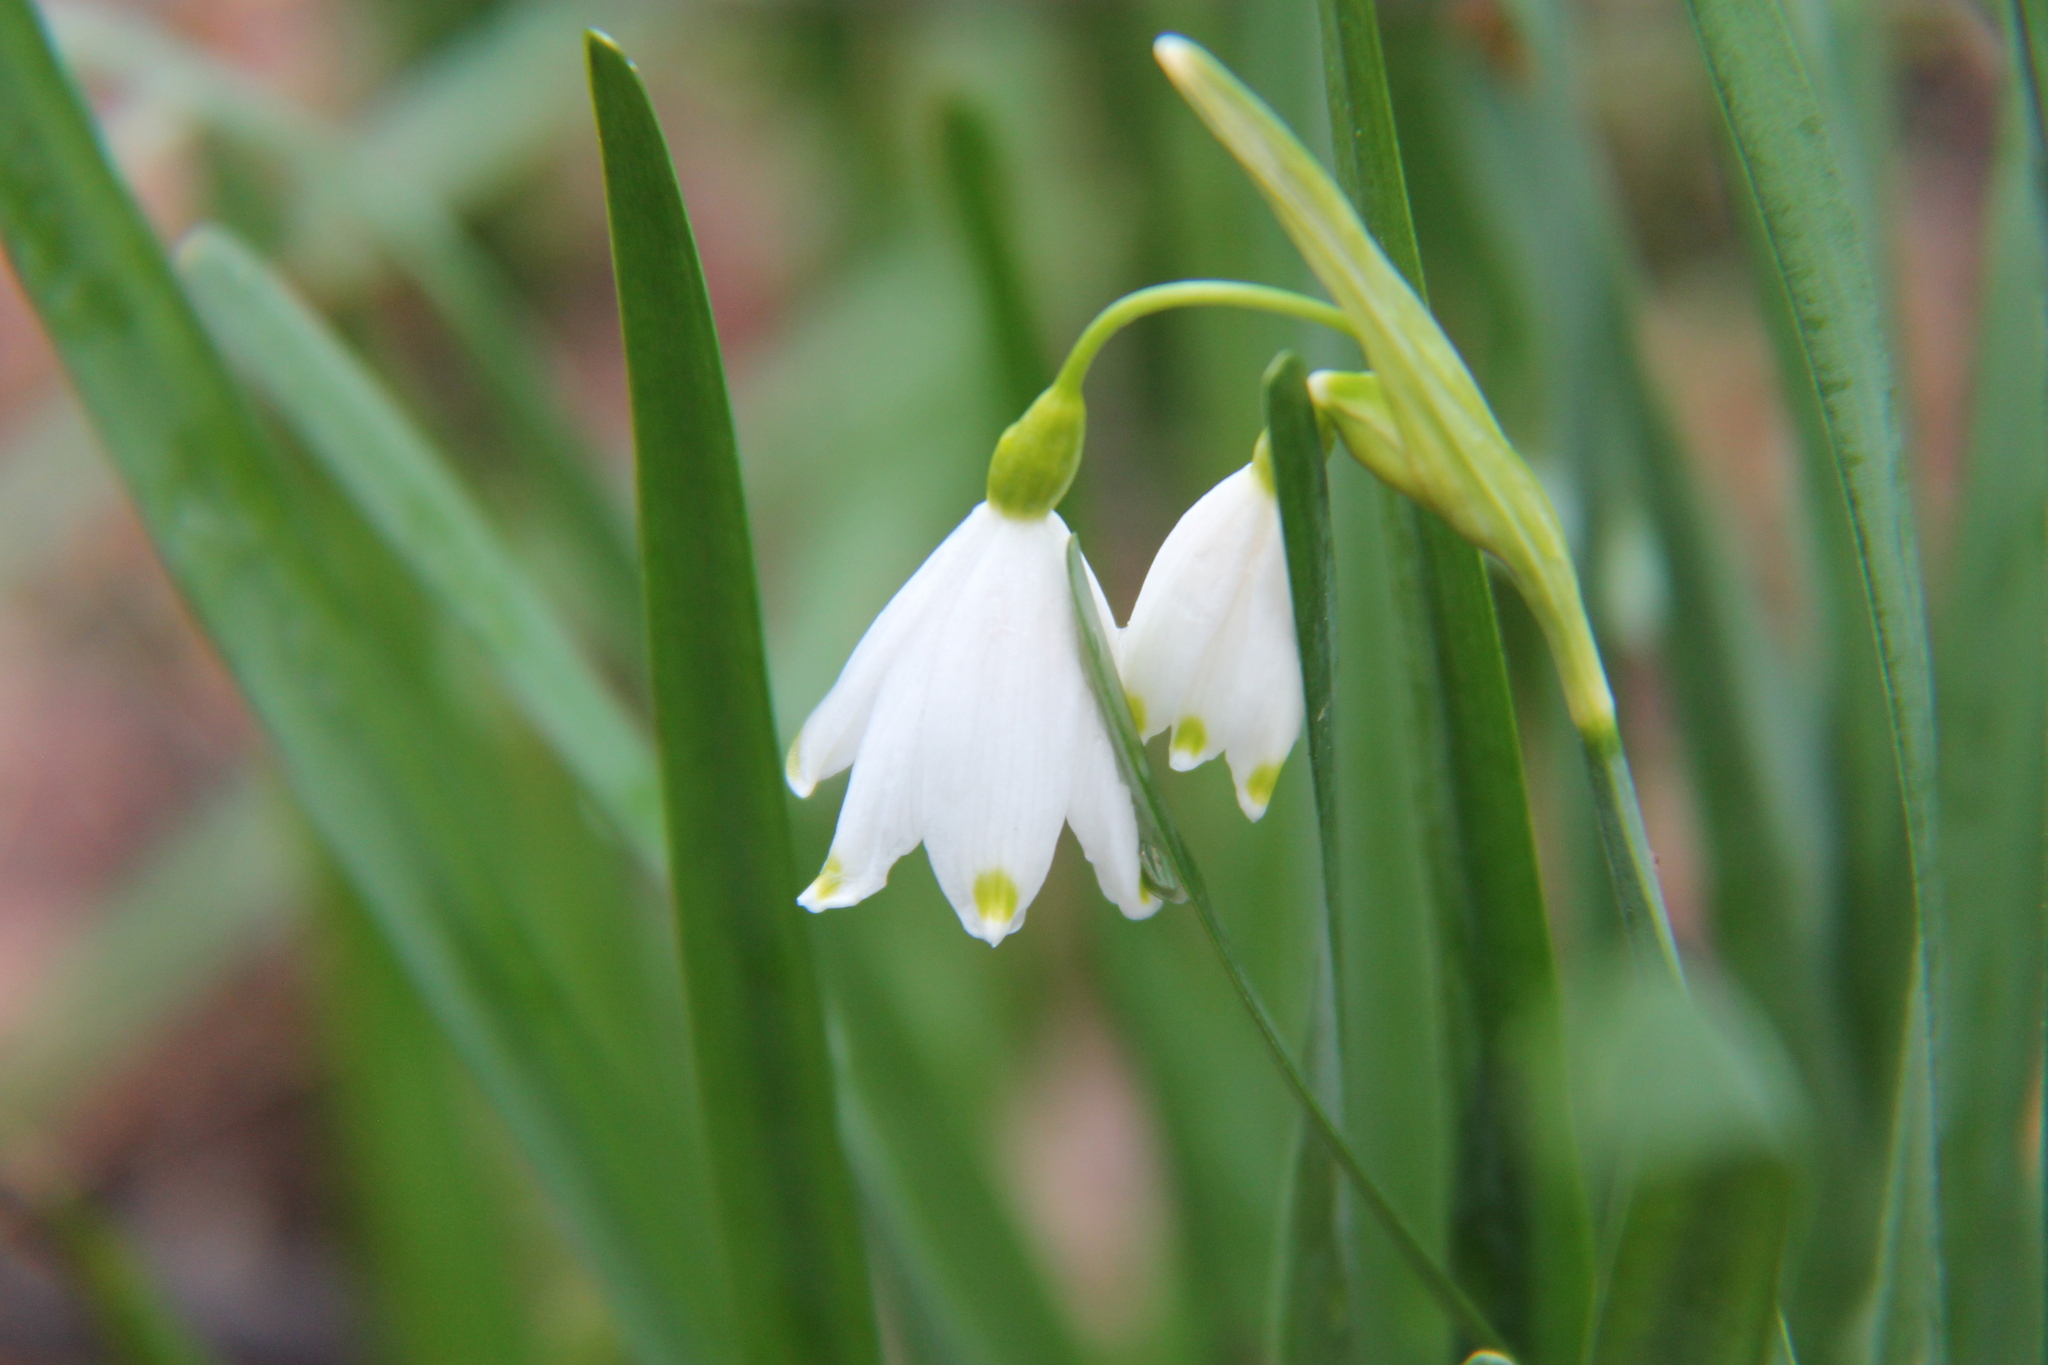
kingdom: Plantae
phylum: Tracheophyta
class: Liliopsida
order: Asparagales
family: Amaryllidaceae
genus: Leucojum
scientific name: Leucojum aestivum
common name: Summer snowflake
